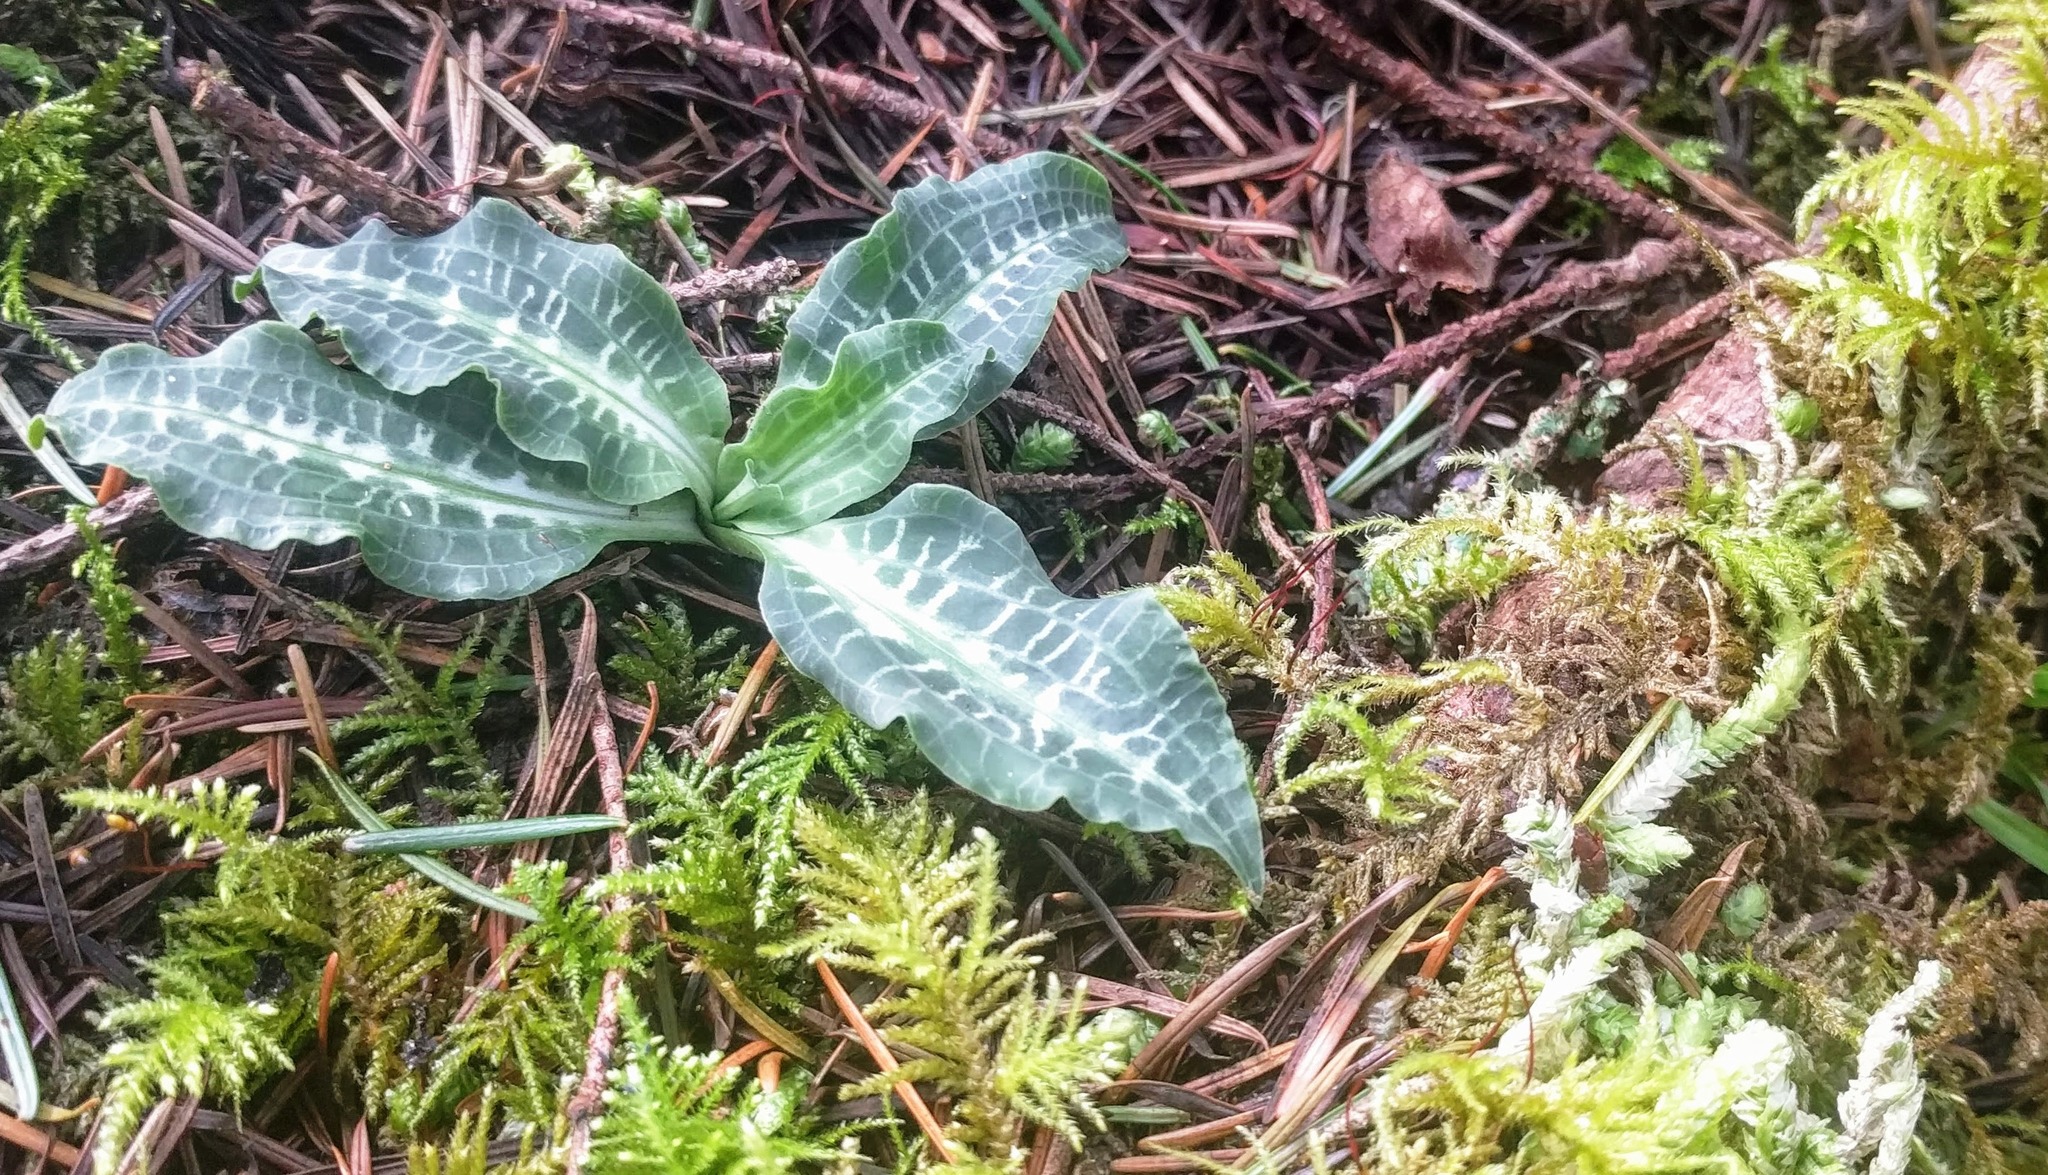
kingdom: Plantae
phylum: Tracheophyta
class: Liliopsida
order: Asparagales
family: Orchidaceae
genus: Goodyera
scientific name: Goodyera oblongifolia
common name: Giant rattlesnake-plantain
